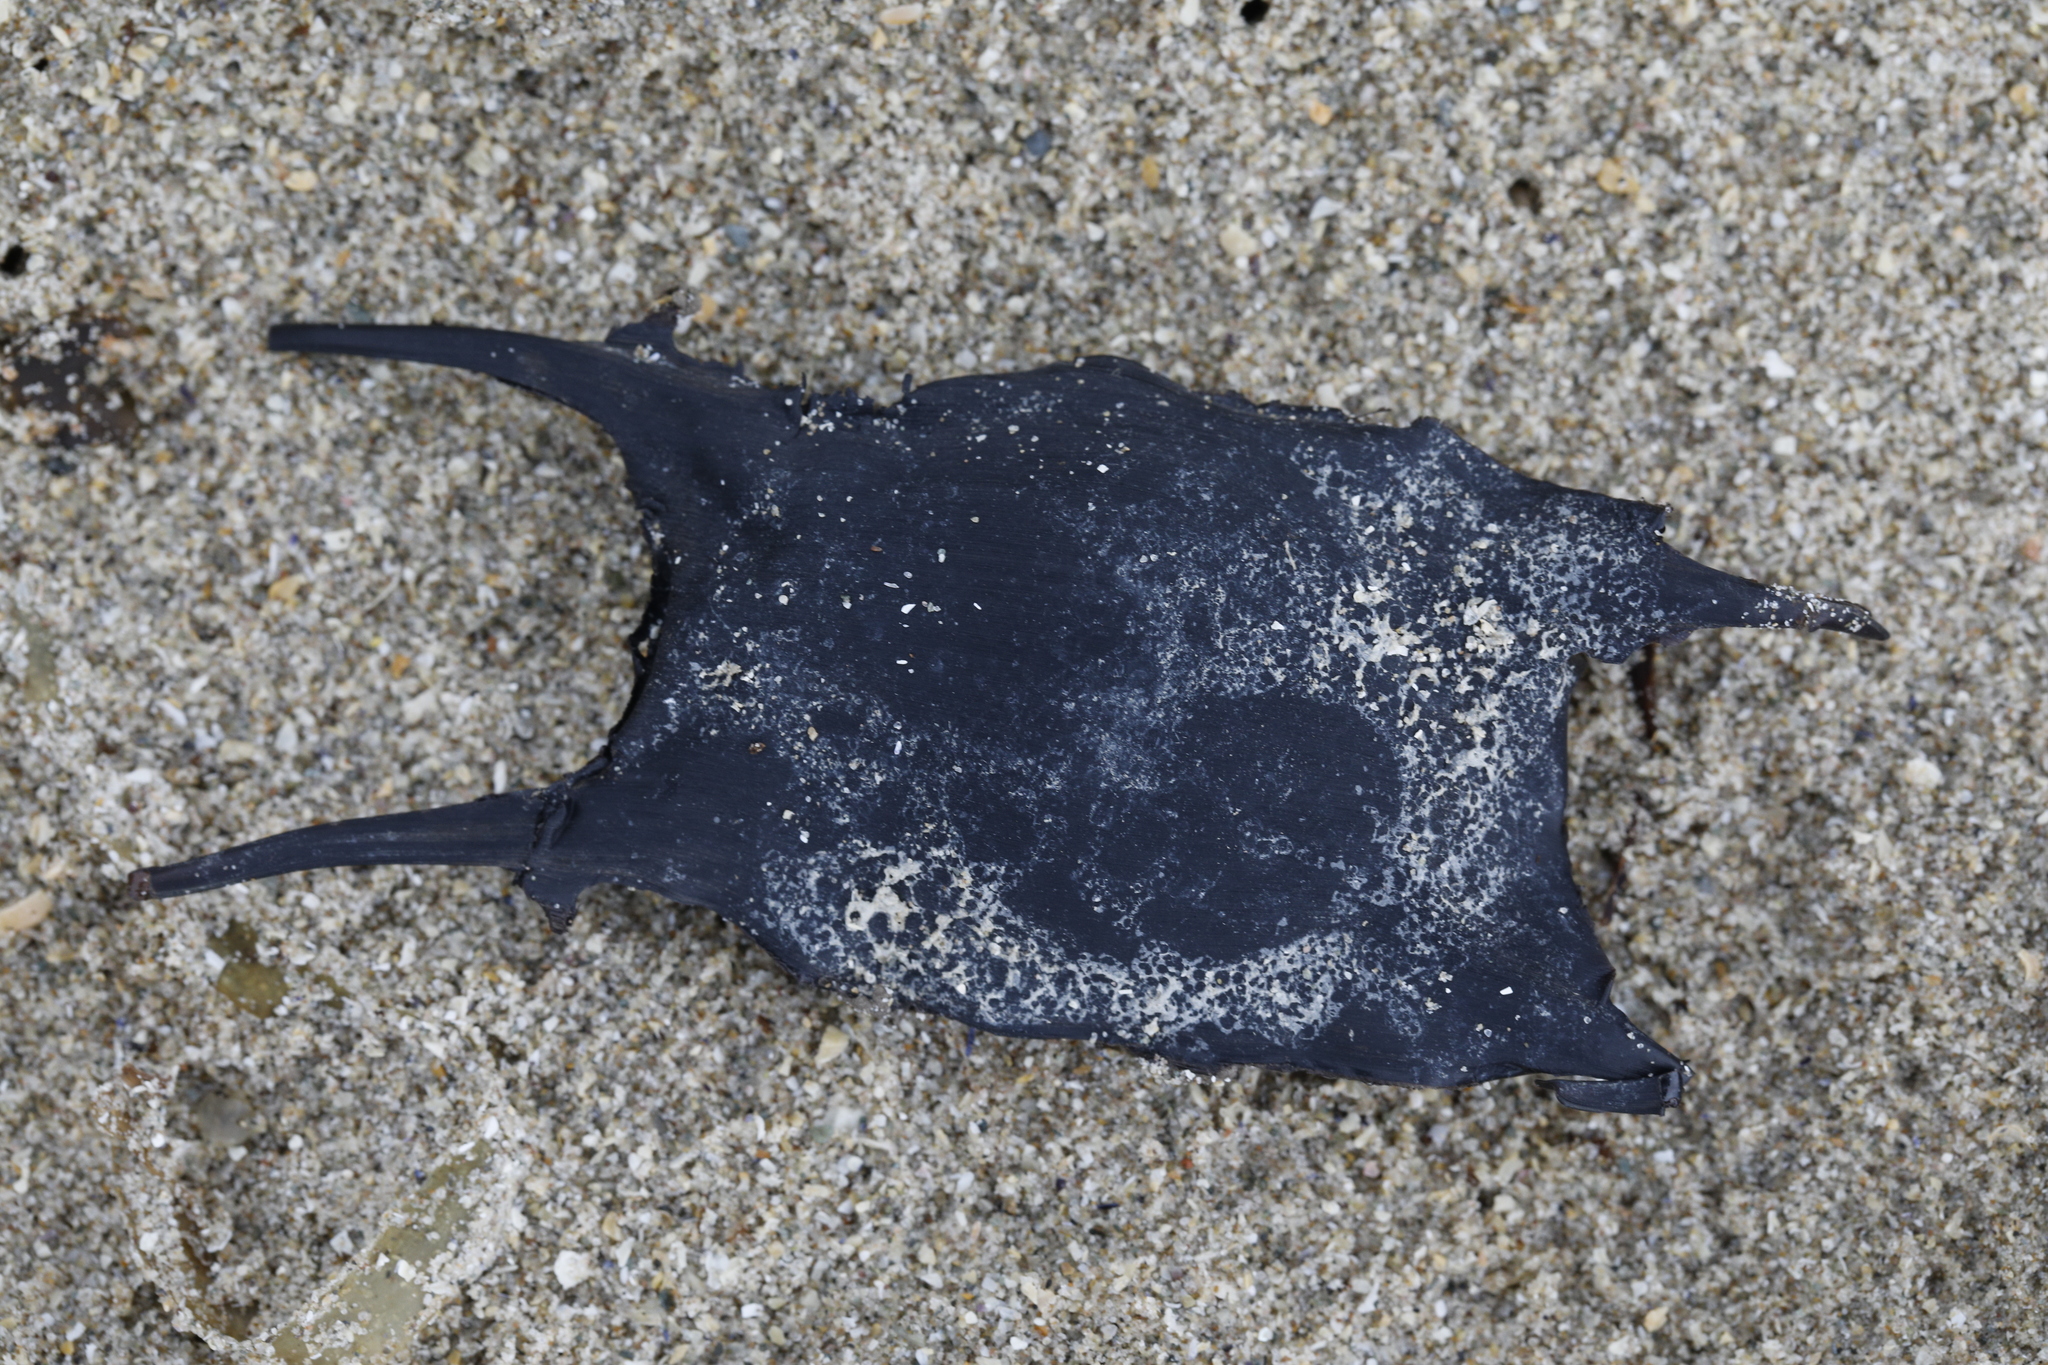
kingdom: Animalia
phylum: Chordata
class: Elasmobranchii
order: Rajiformes
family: Rajidae
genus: Raja
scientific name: Raja clavata
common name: Thornback ray
